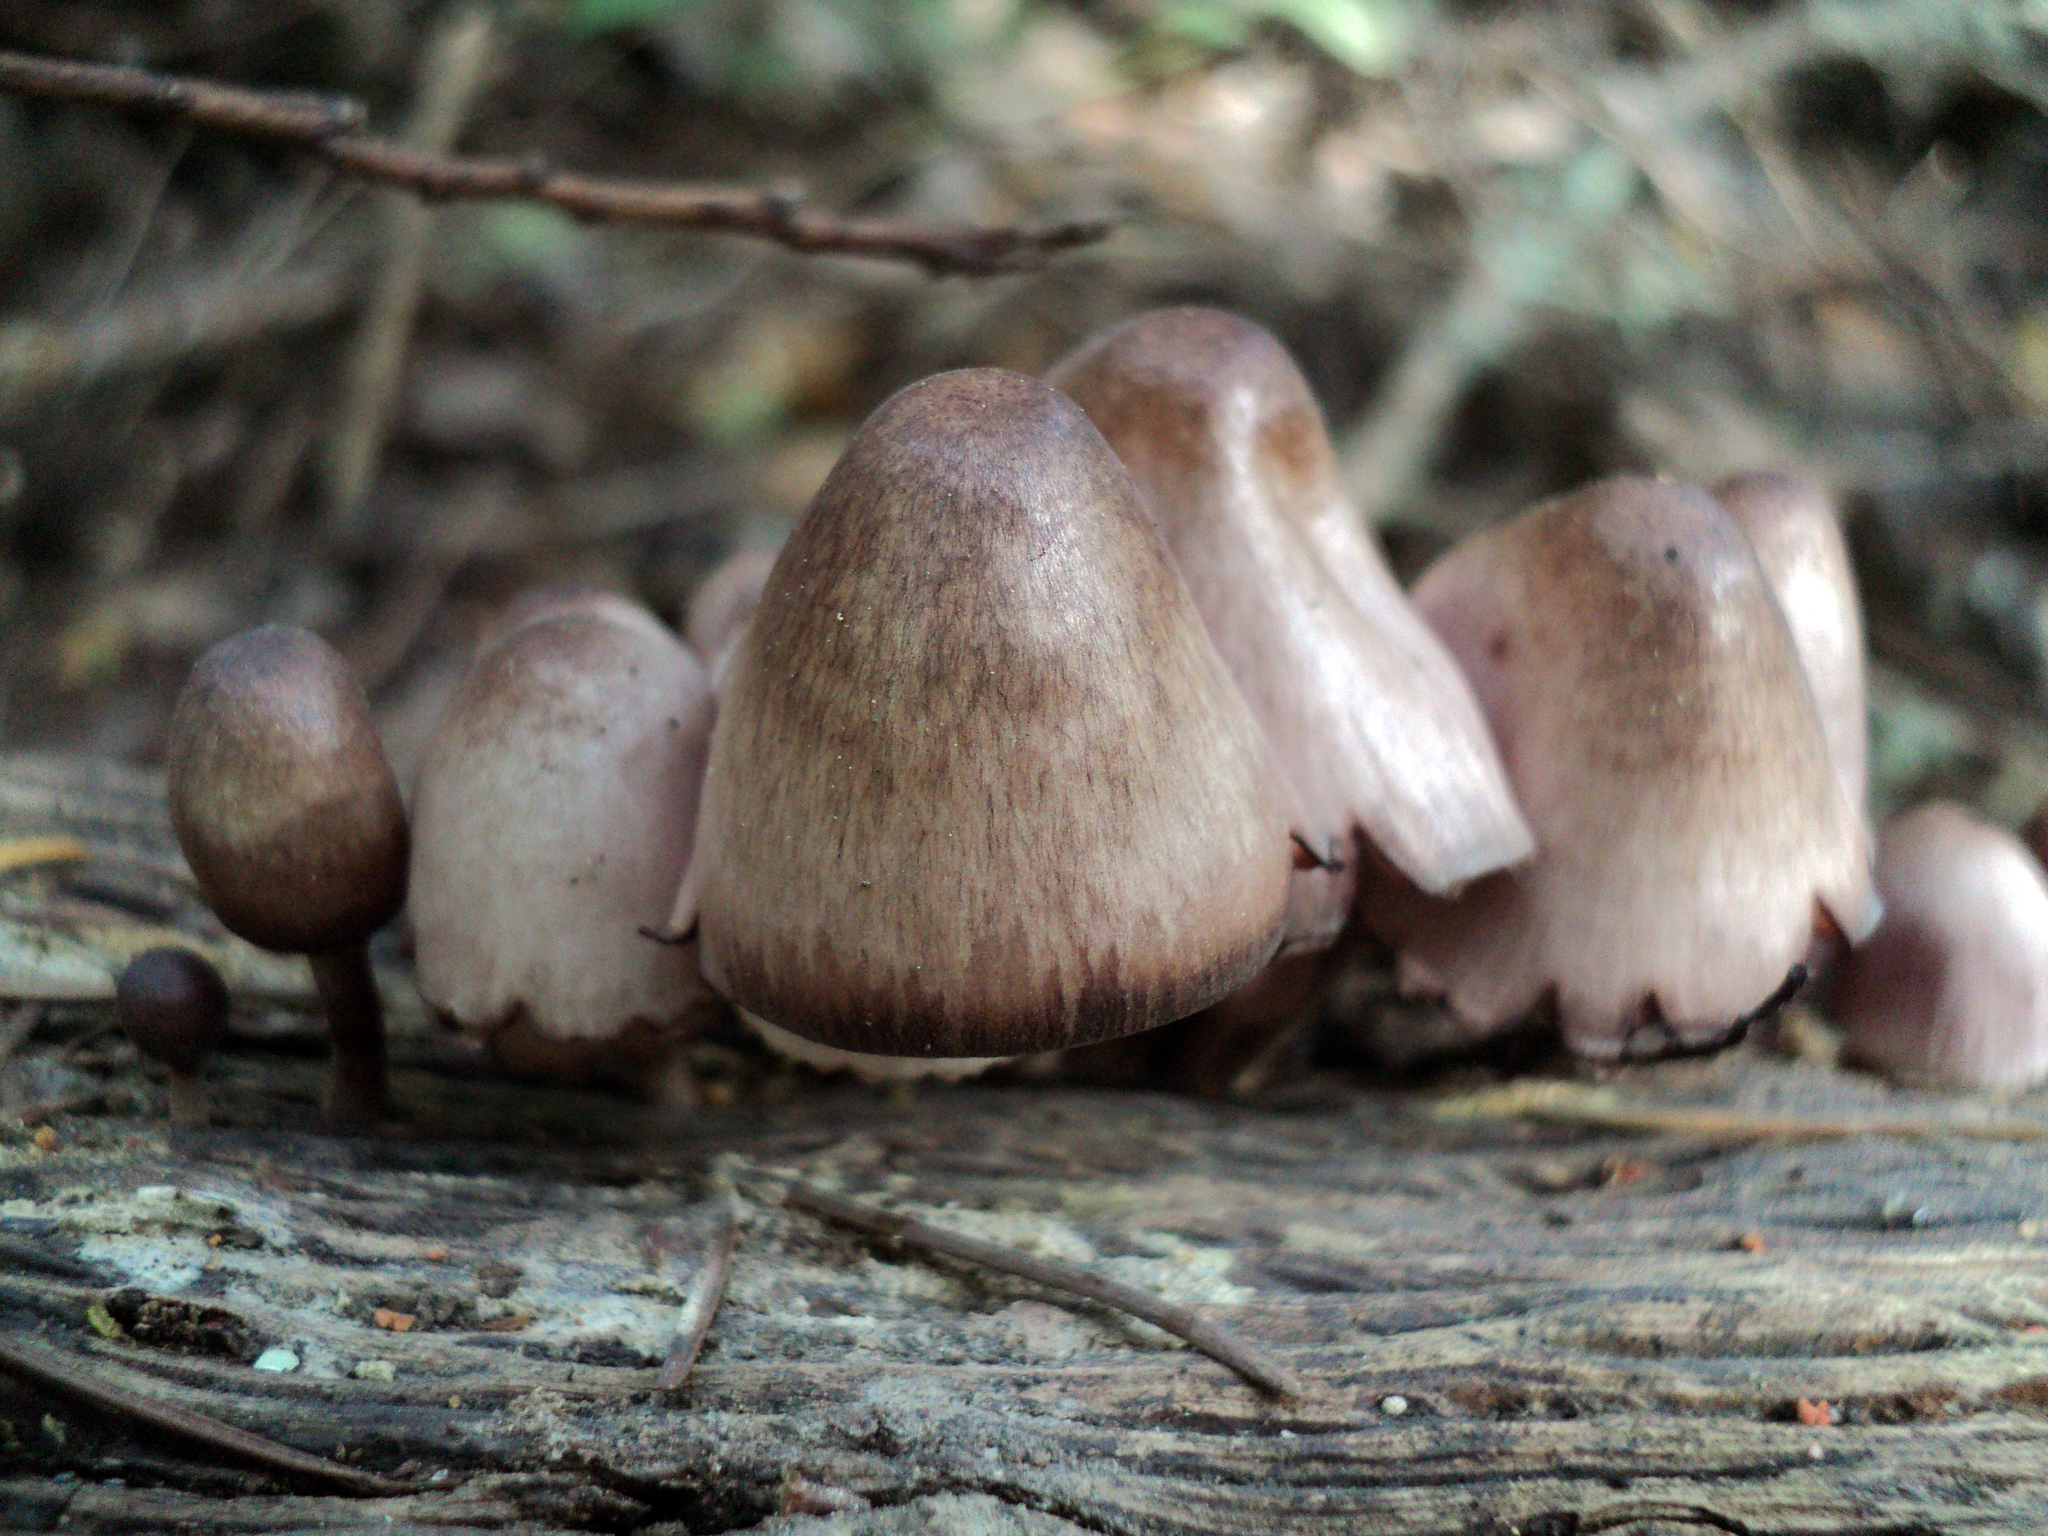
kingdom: Fungi
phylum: Basidiomycota
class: Agaricomycetes
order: Agaricales
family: Mycenaceae
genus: Mycena
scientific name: Mycena haematopus
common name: Burgundydrop bonnet
